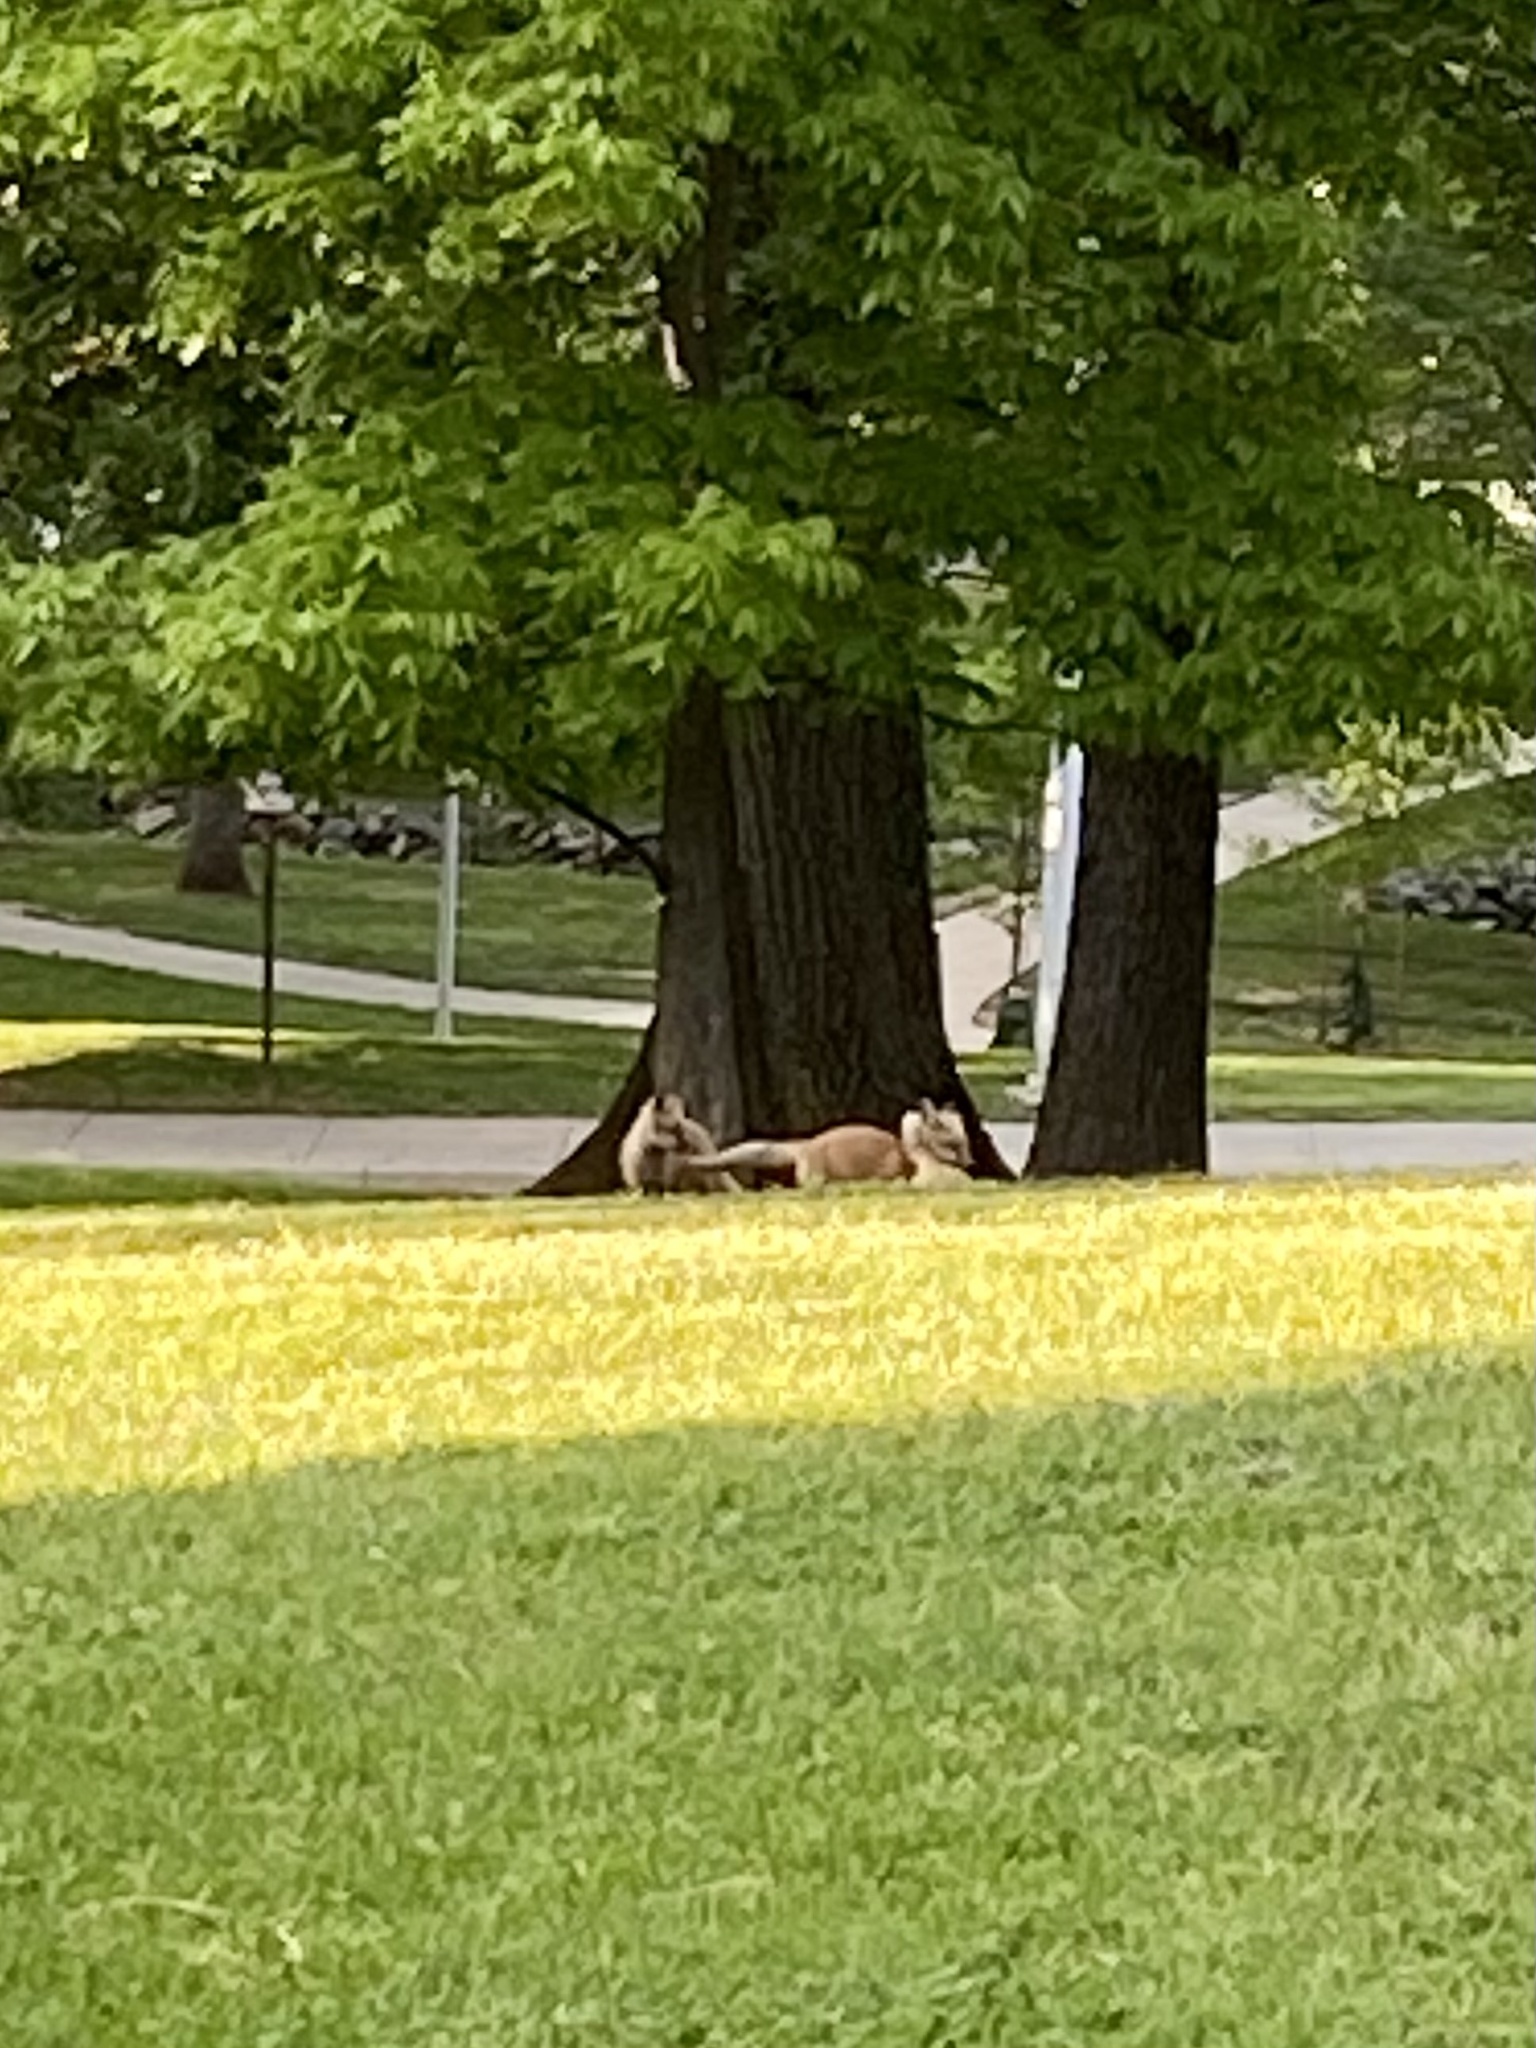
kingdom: Animalia
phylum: Chordata
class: Mammalia
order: Carnivora
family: Canidae
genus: Vulpes
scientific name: Vulpes vulpes
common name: Red fox
